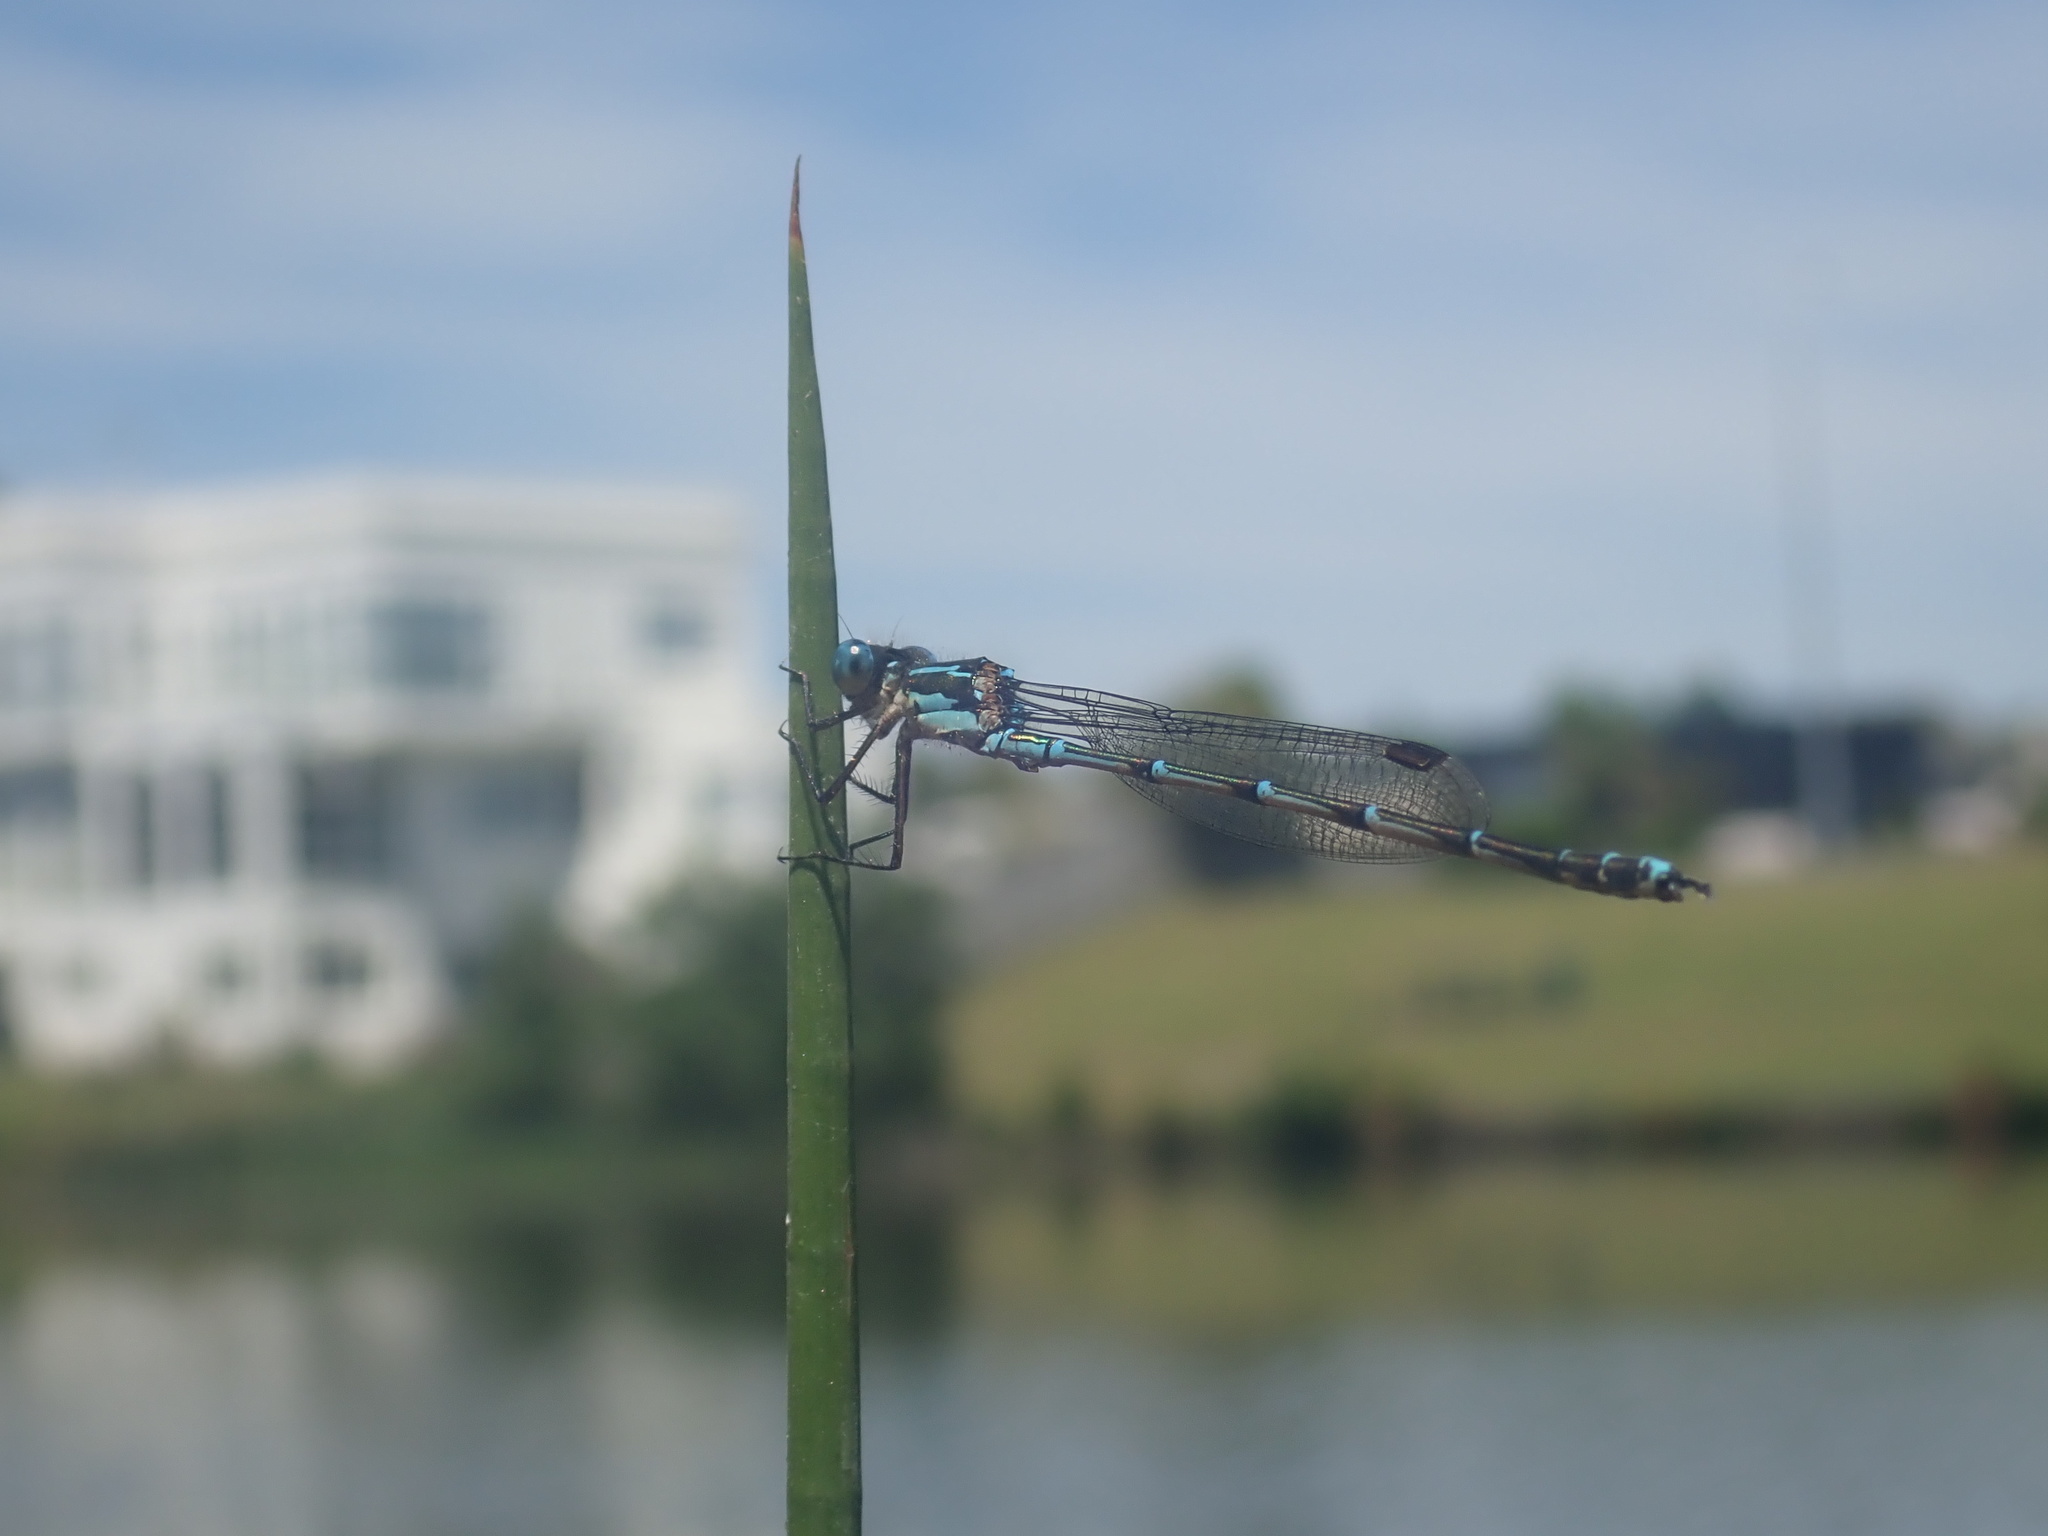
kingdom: Animalia
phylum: Arthropoda
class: Insecta
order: Odonata
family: Lestidae
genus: Austrolestes
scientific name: Austrolestes colensonis
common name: Blue damselfly
